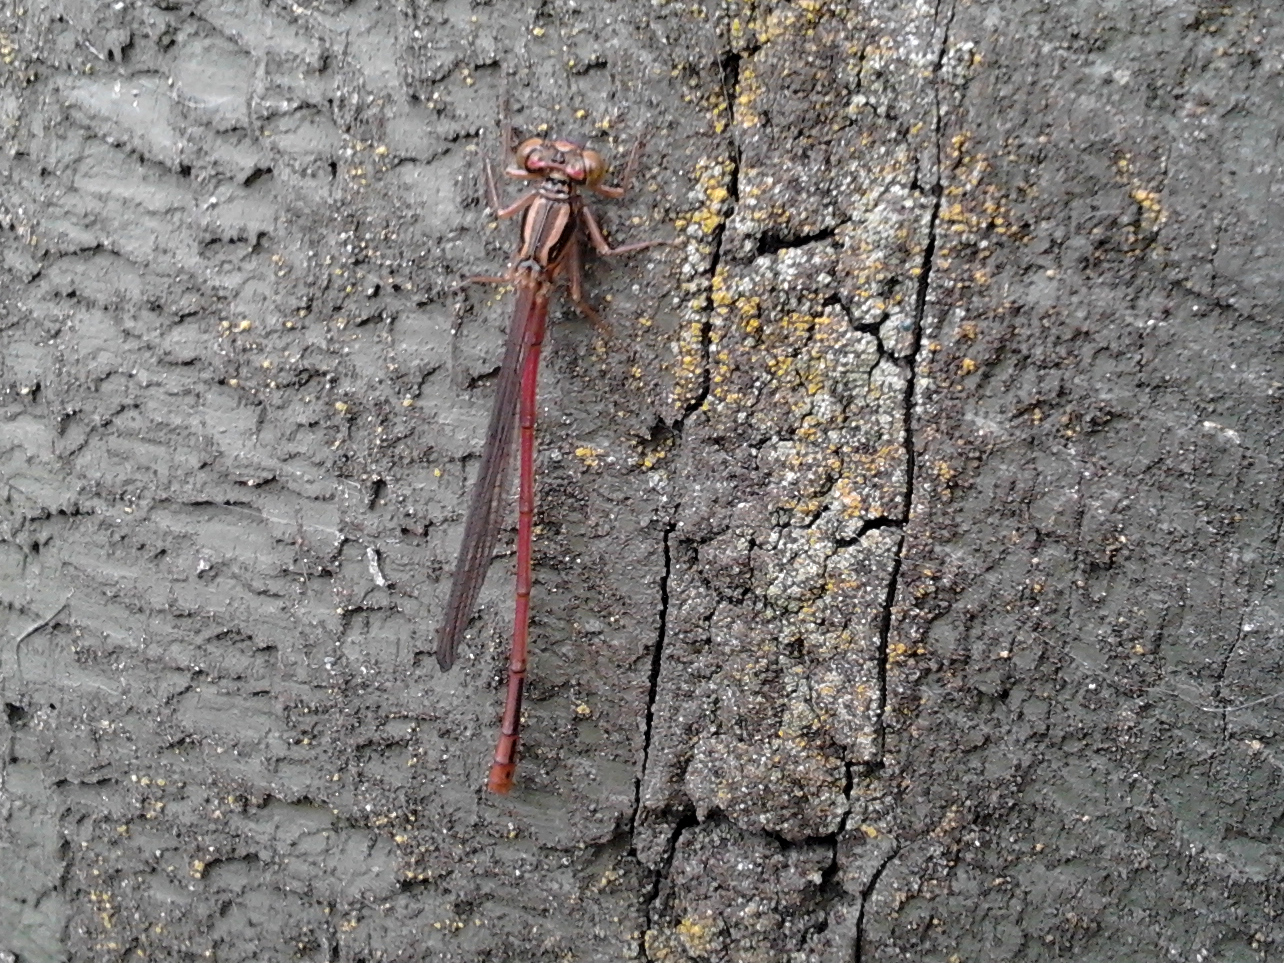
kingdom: Animalia
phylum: Arthropoda
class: Insecta
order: Odonata
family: Coenagrionidae
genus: Xanthocnemis
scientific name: Xanthocnemis zealandica
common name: Common redcoat damselfly
